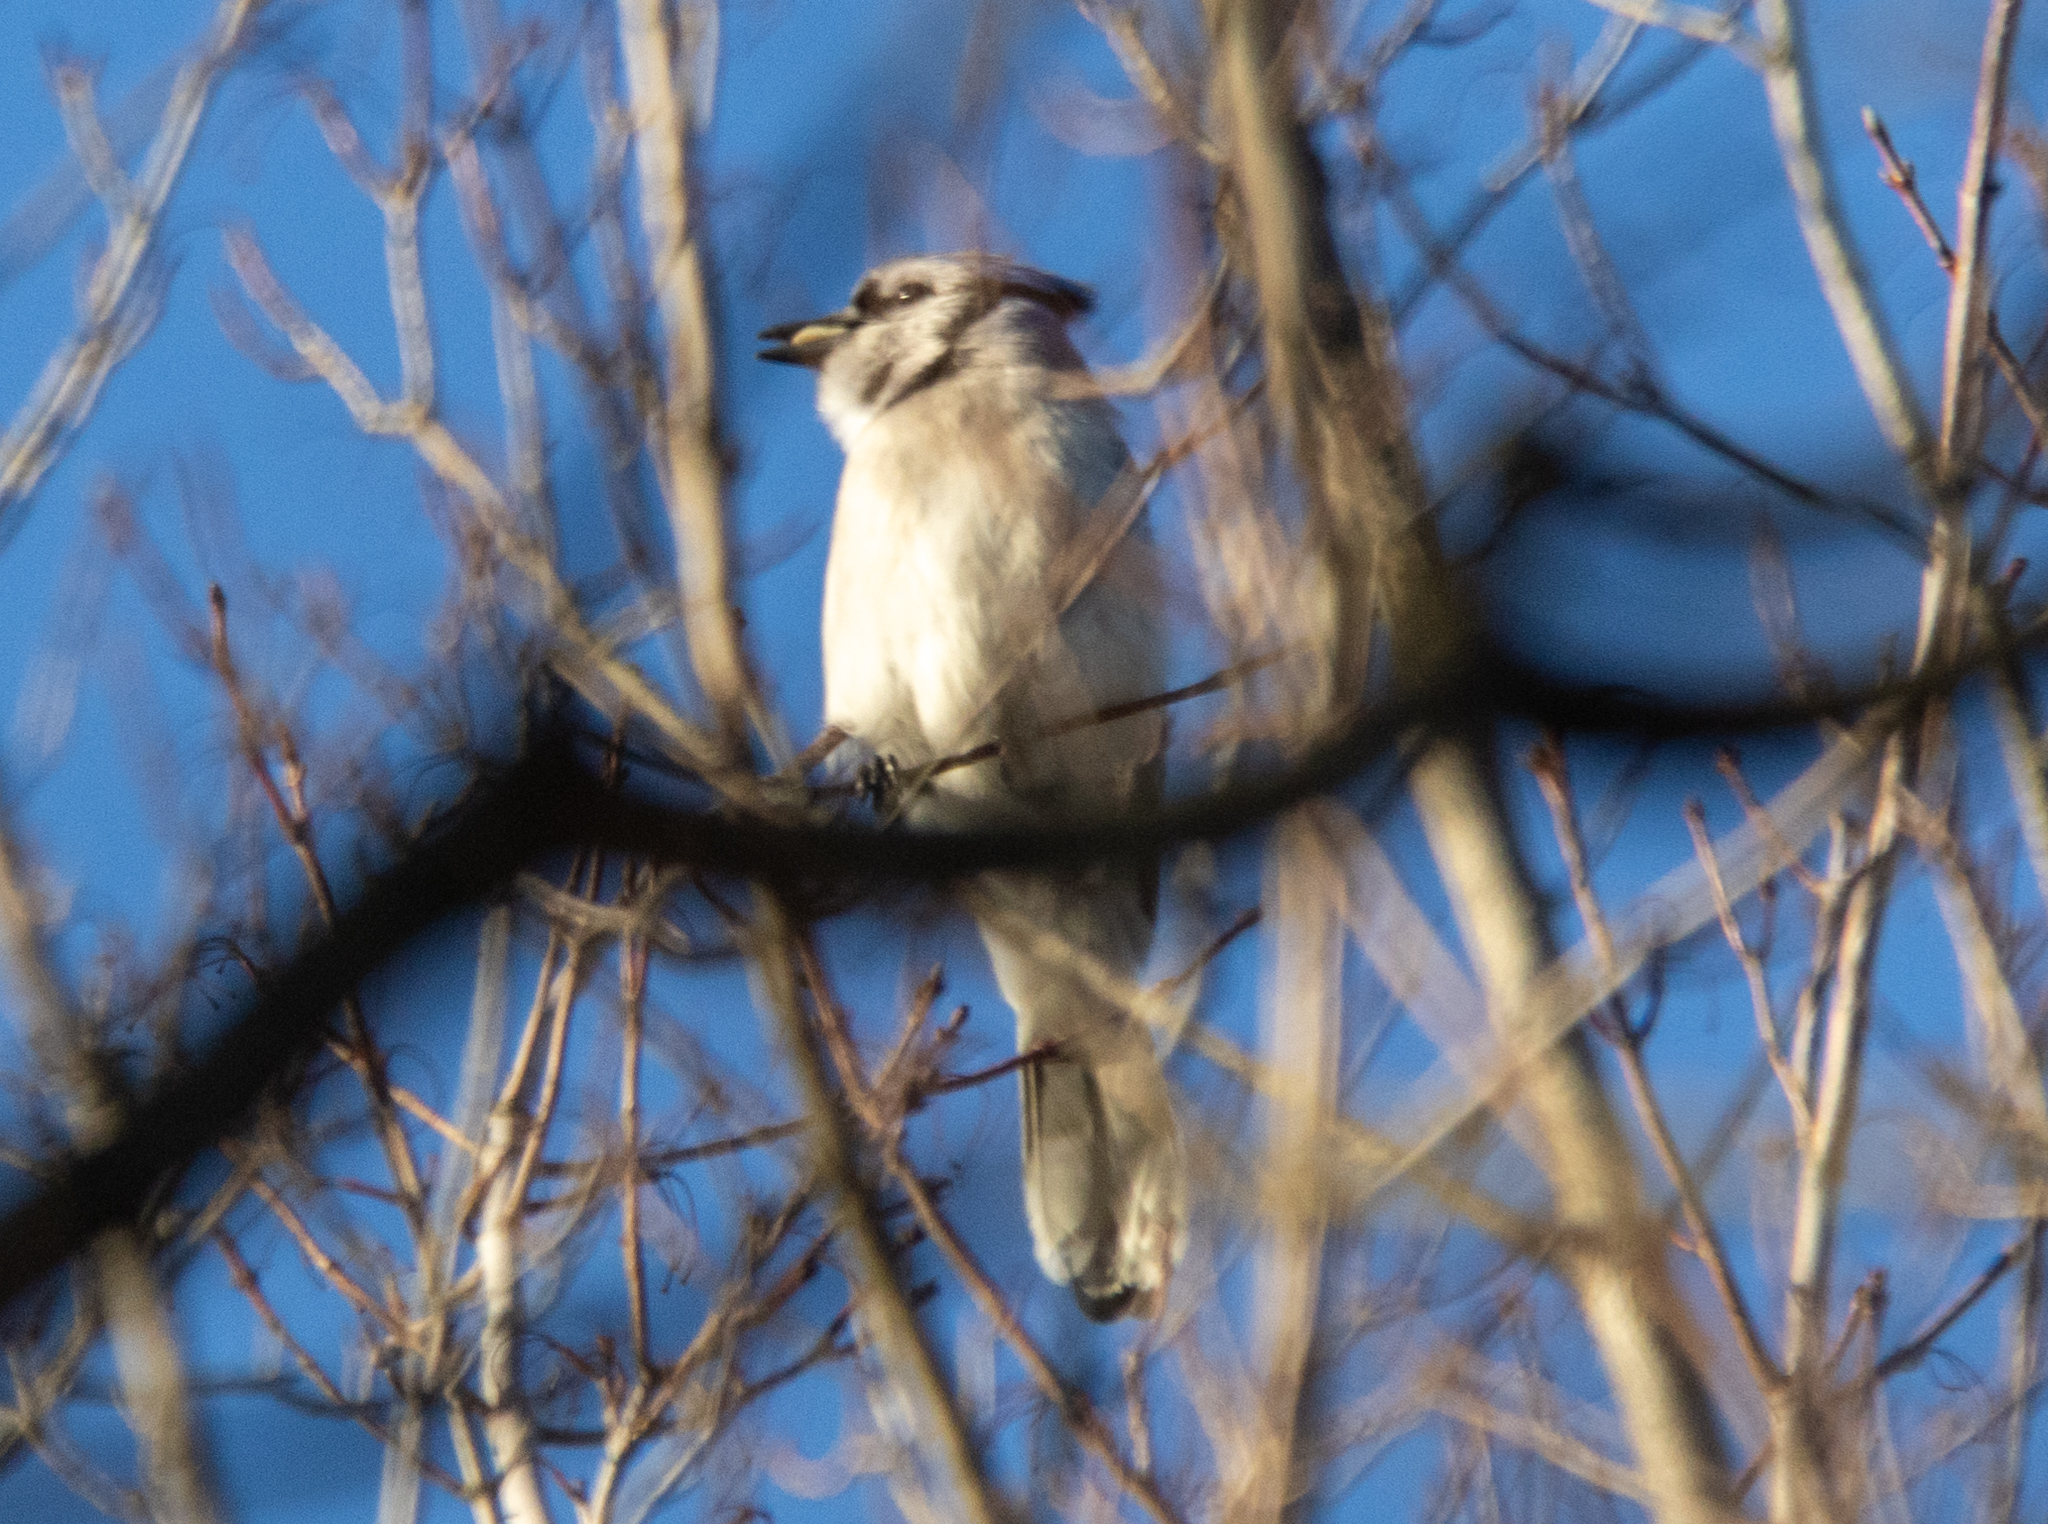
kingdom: Animalia
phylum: Chordata
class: Aves
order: Passeriformes
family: Corvidae
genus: Cyanocitta
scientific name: Cyanocitta cristata
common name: Blue jay
